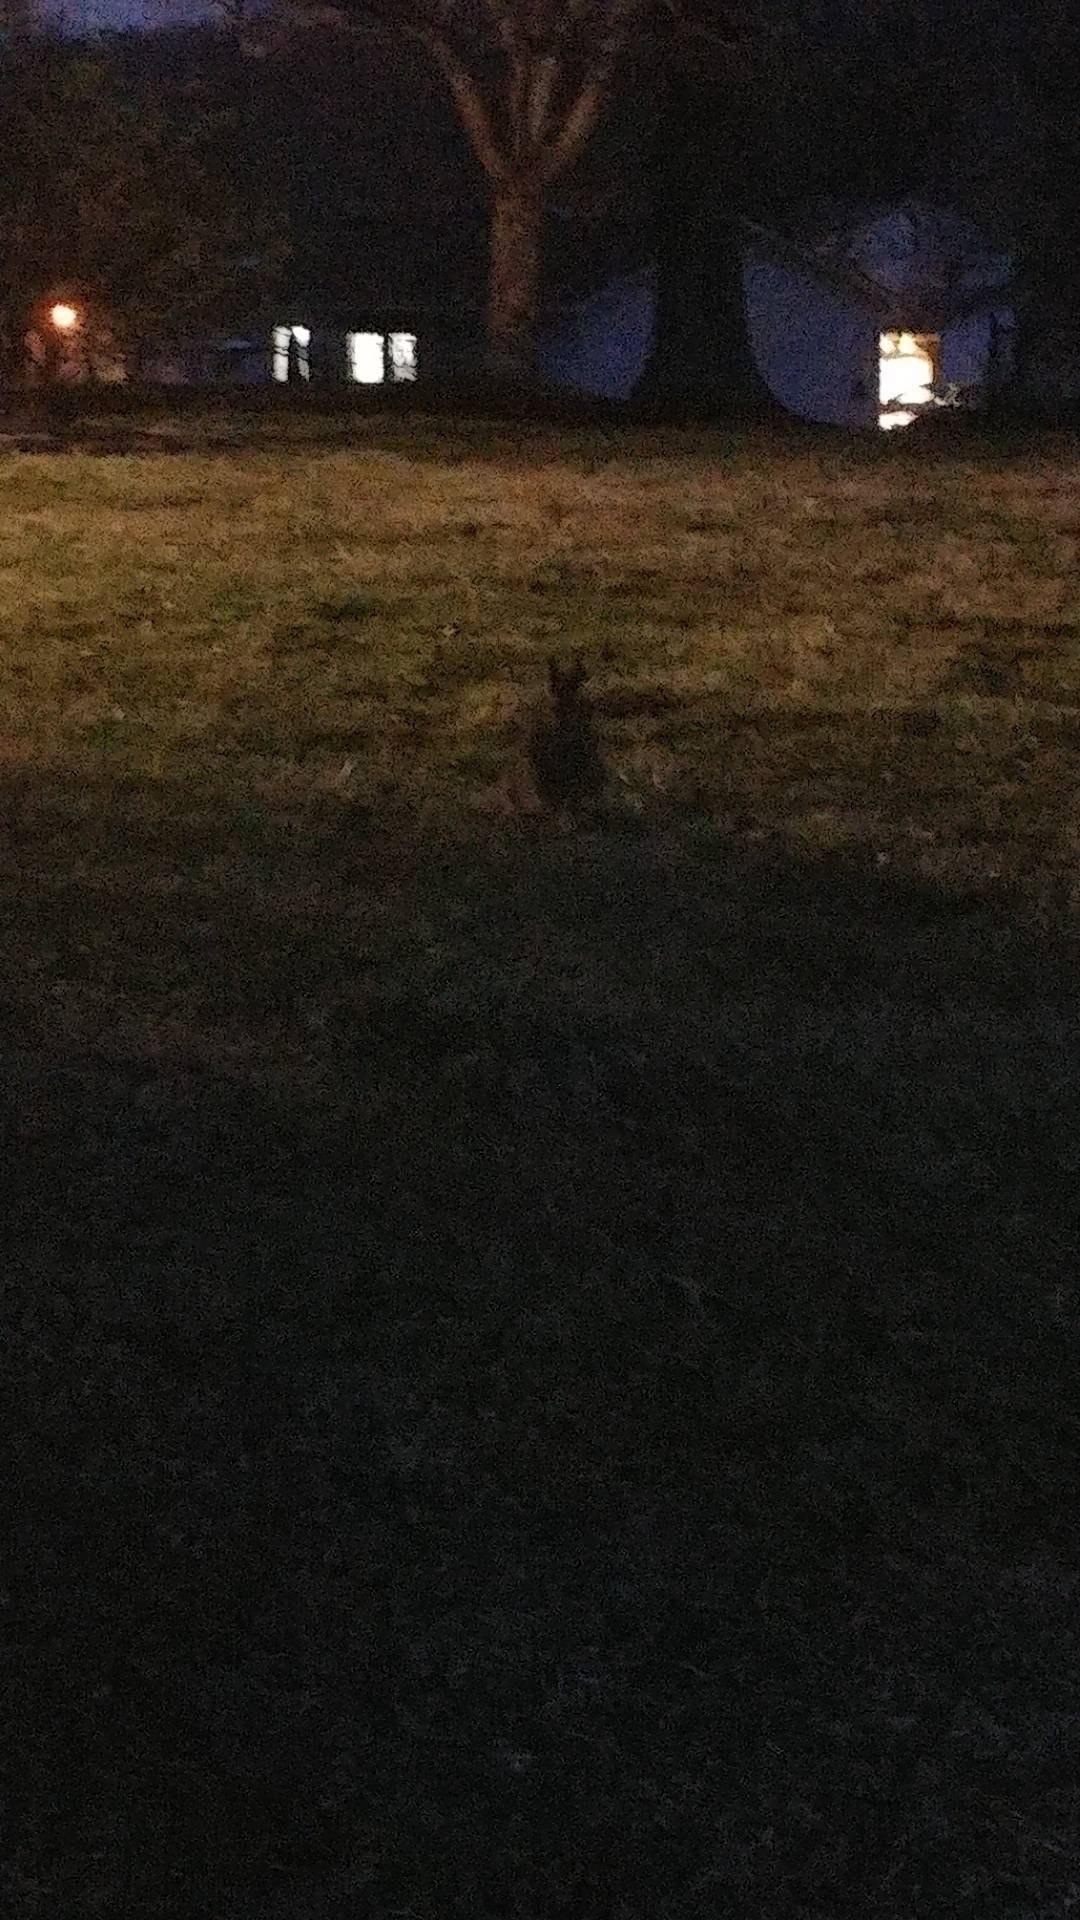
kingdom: Animalia
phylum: Chordata
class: Mammalia
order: Lagomorpha
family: Leporidae
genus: Sylvilagus
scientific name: Sylvilagus floridanus
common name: Eastern cottontail
